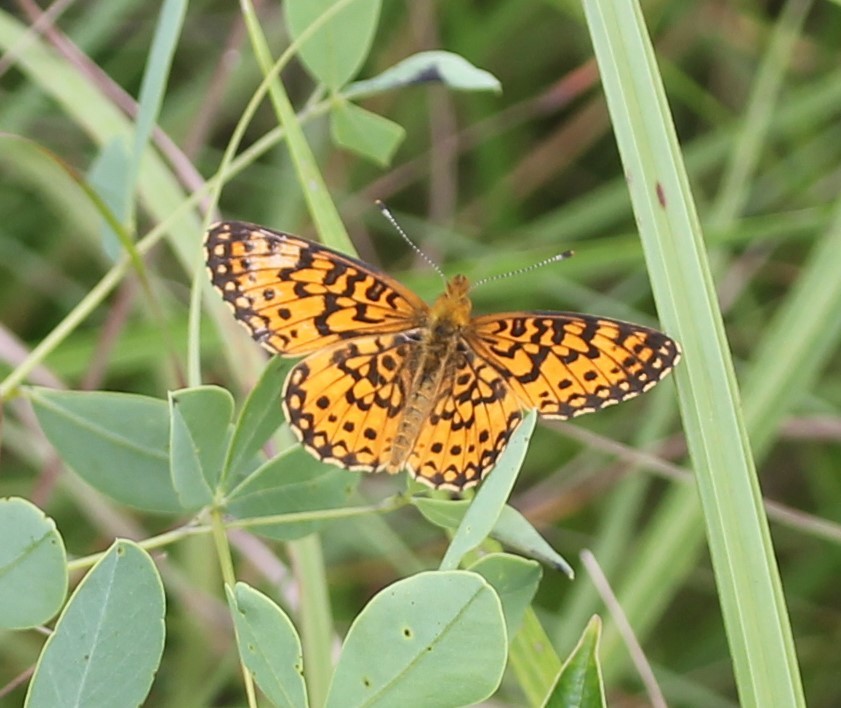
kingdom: Animalia
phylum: Arthropoda
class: Insecta
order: Lepidoptera
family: Nymphalidae
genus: Boloria
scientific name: Boloria
